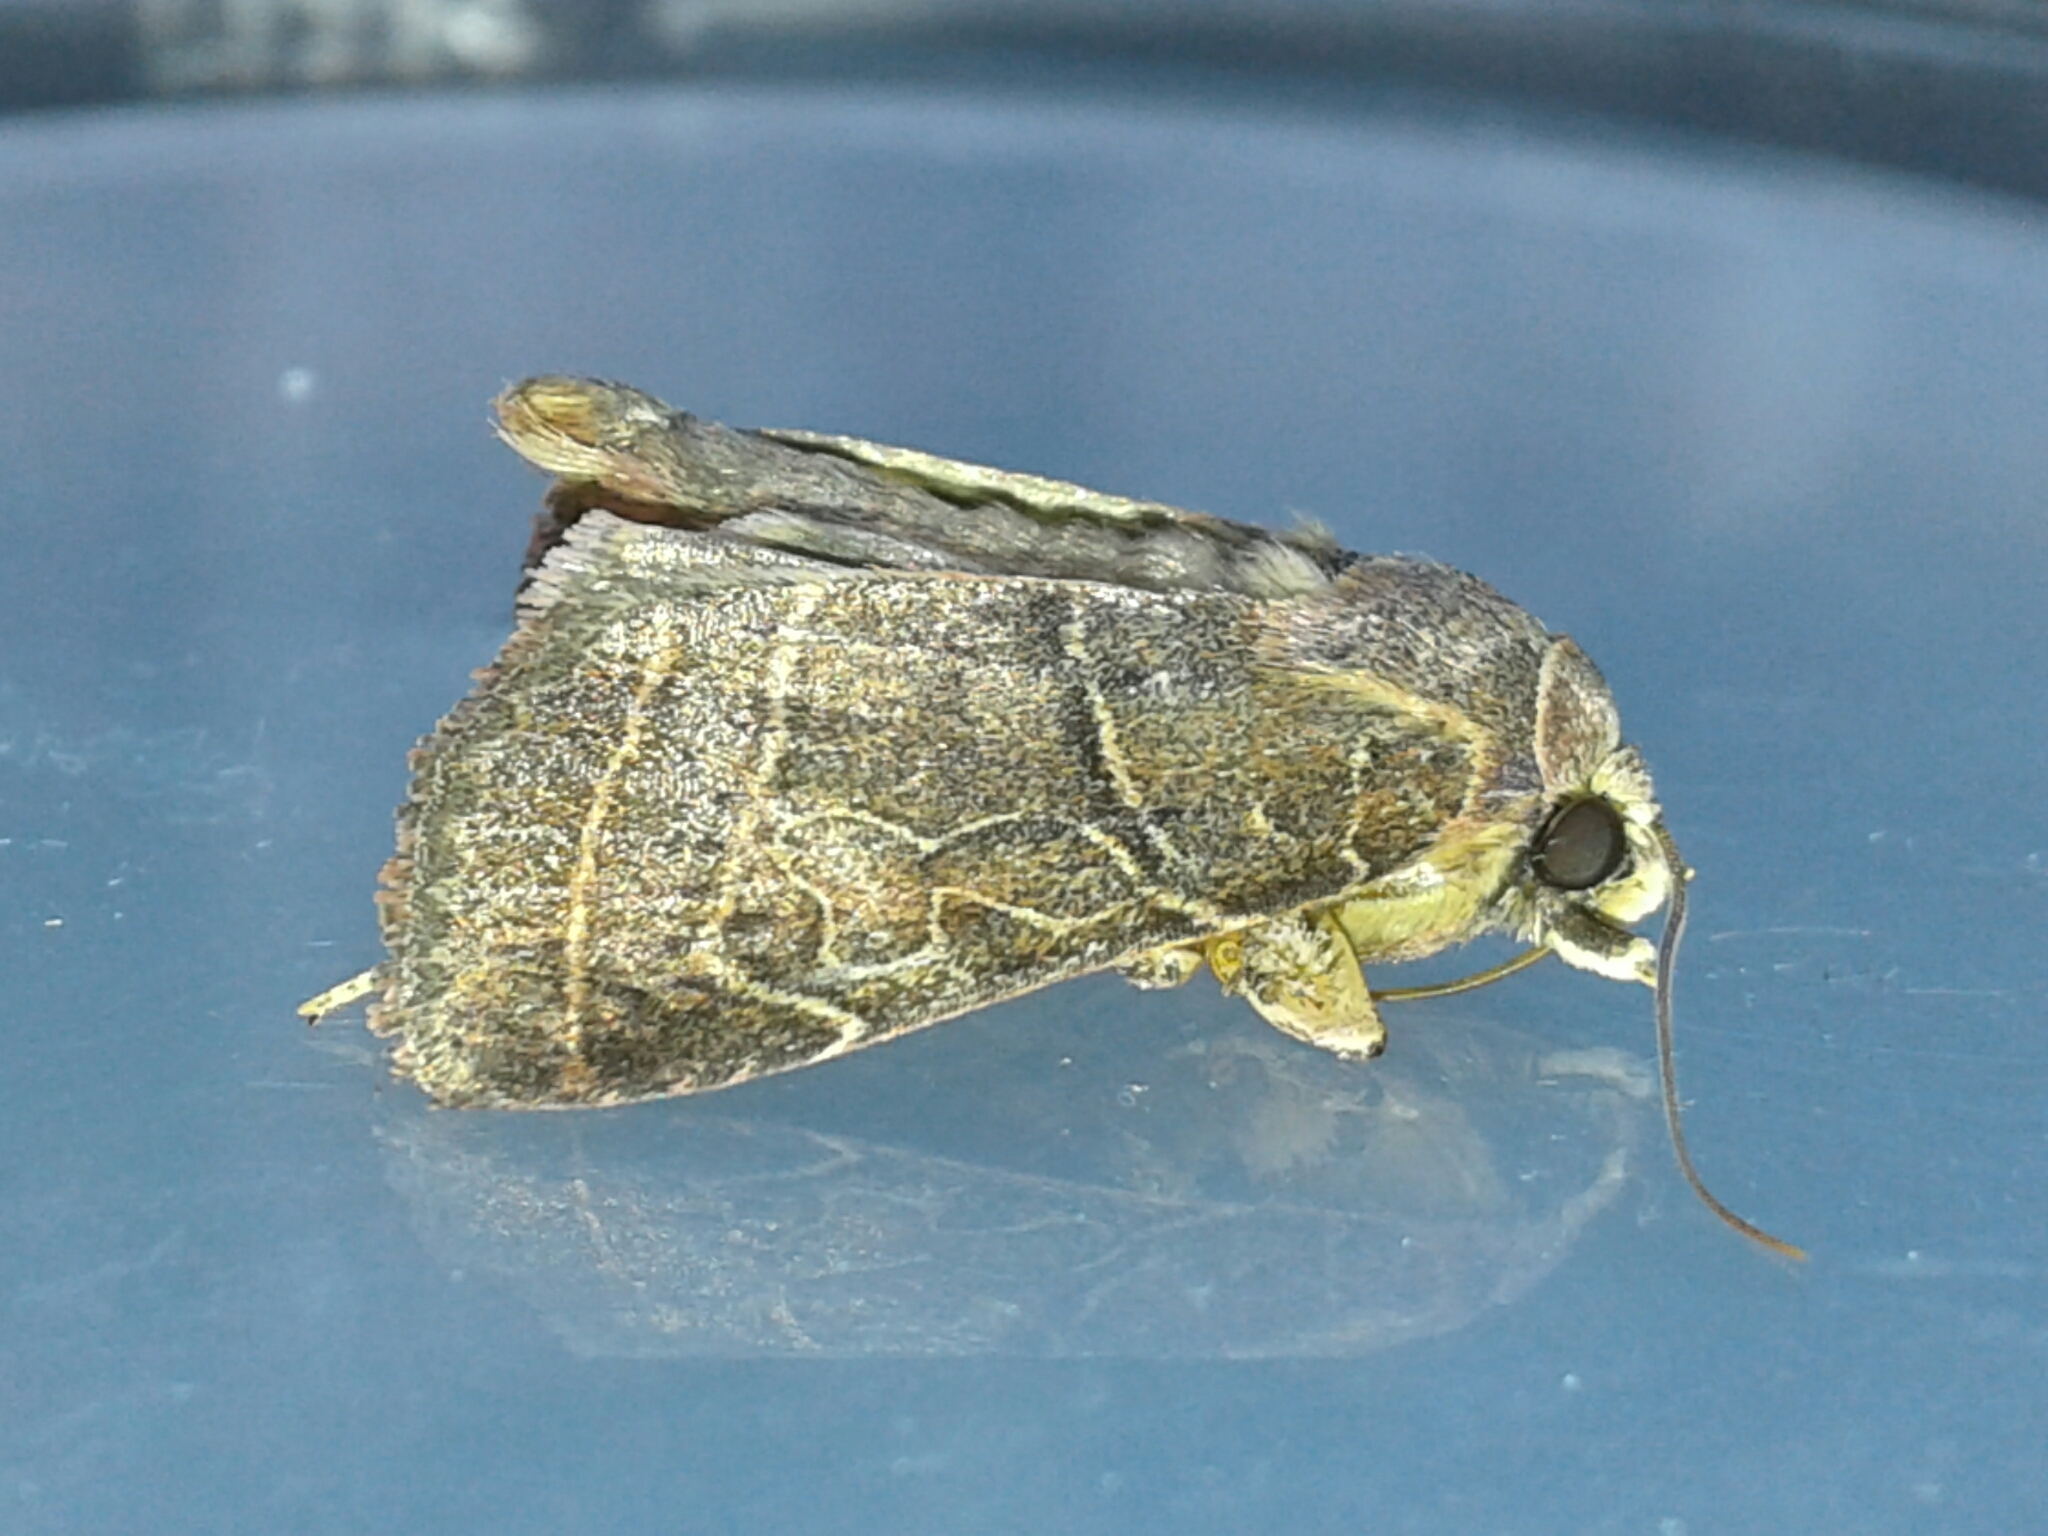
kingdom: Animalia
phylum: Arthropoda
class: Insecta
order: Lepidoptera
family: Noctuidae
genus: Orthodes
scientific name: Orthodes majuscula
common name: Rustic quaker
